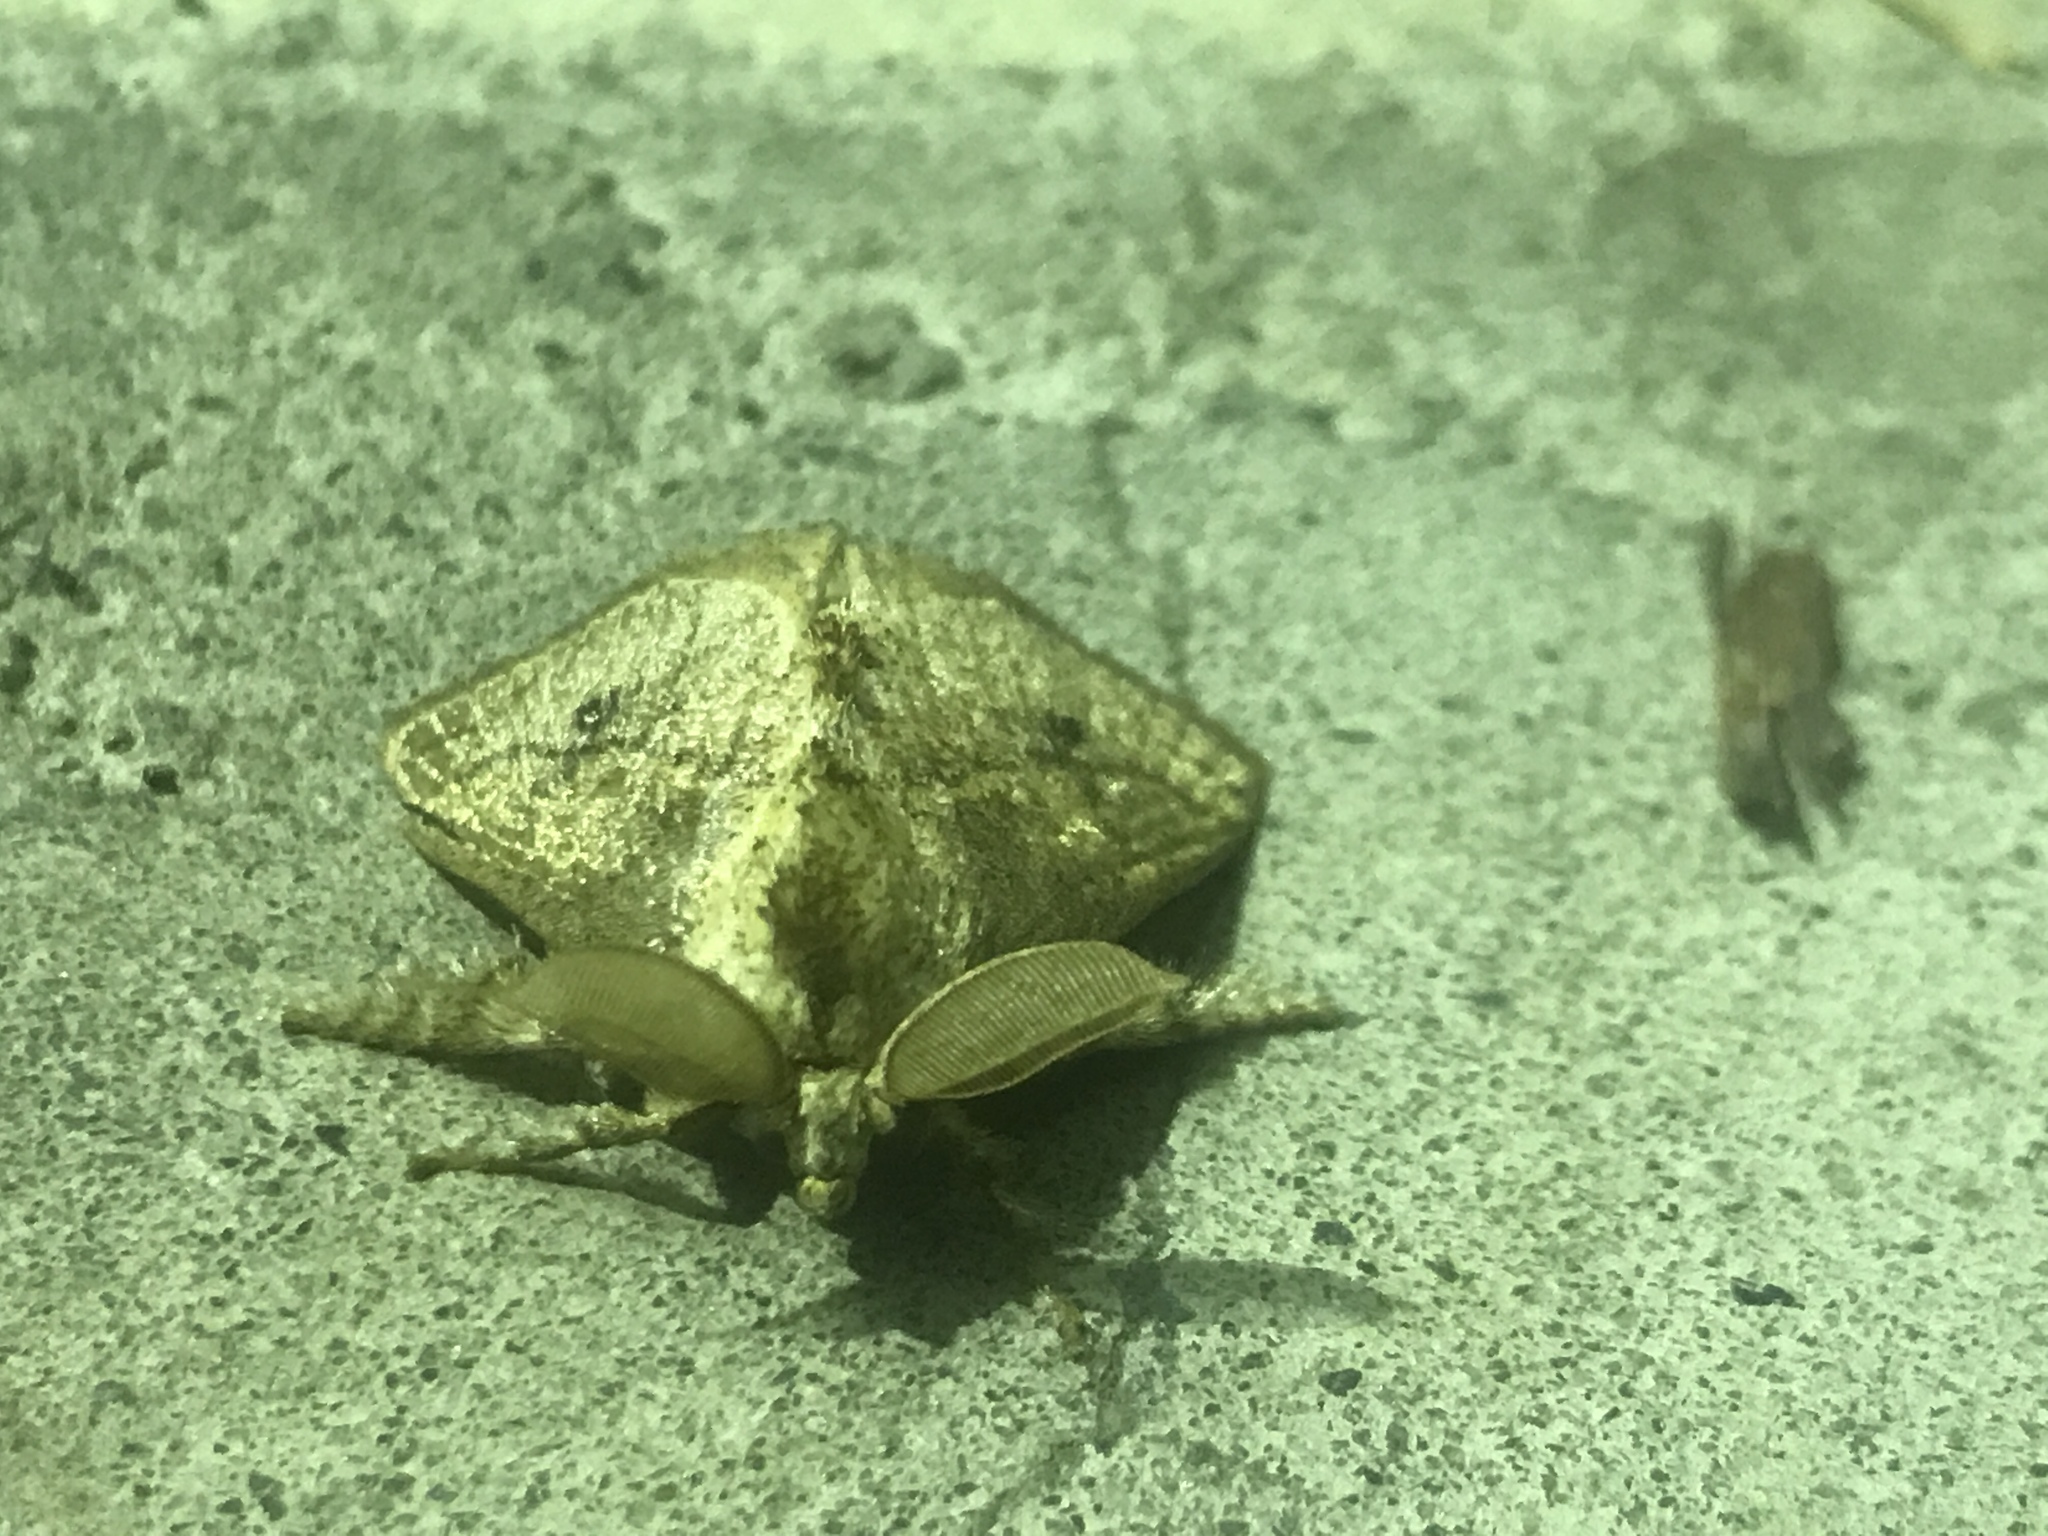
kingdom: Animalia
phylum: Arthropoda
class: Insecta
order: Lepidoptera
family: Limacodidae
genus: Susica
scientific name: Susica sinensis
